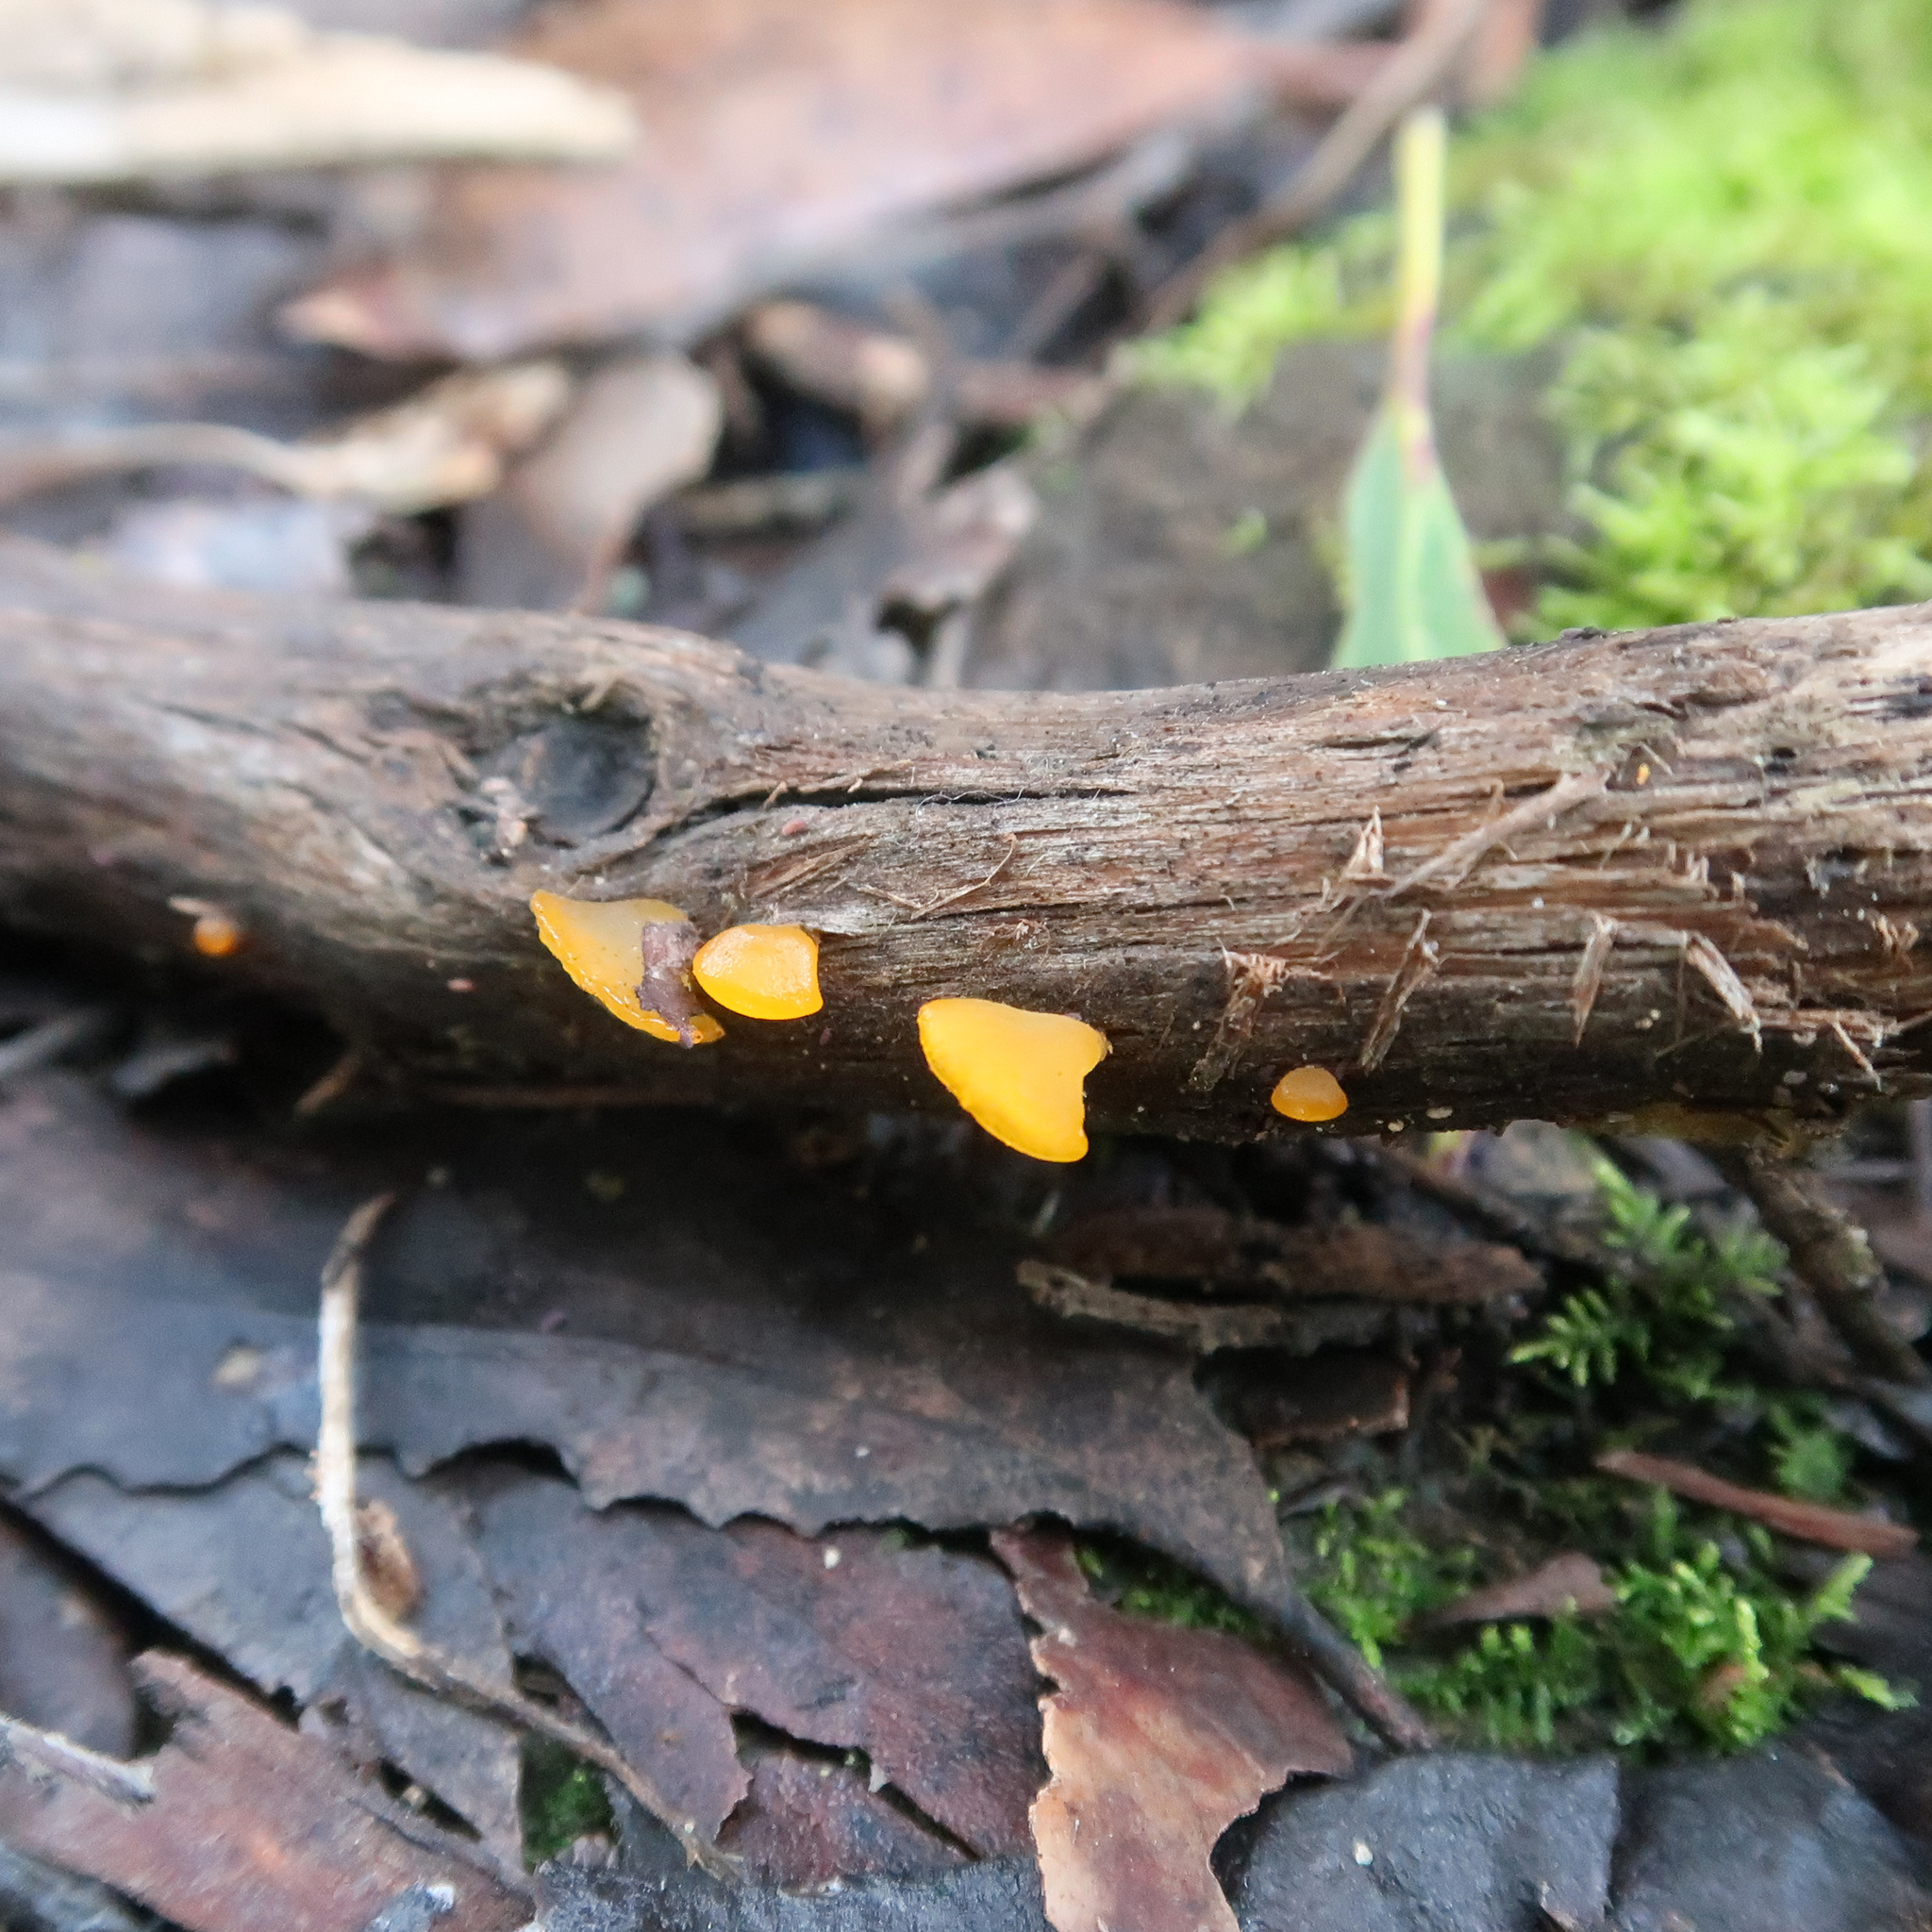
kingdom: Fungi
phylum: Basidiomycota
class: Dacrymycetes
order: Dacrymycetales
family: Dacrymycetaceae
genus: Heterotextus
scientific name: Heterotextus peziziformis
